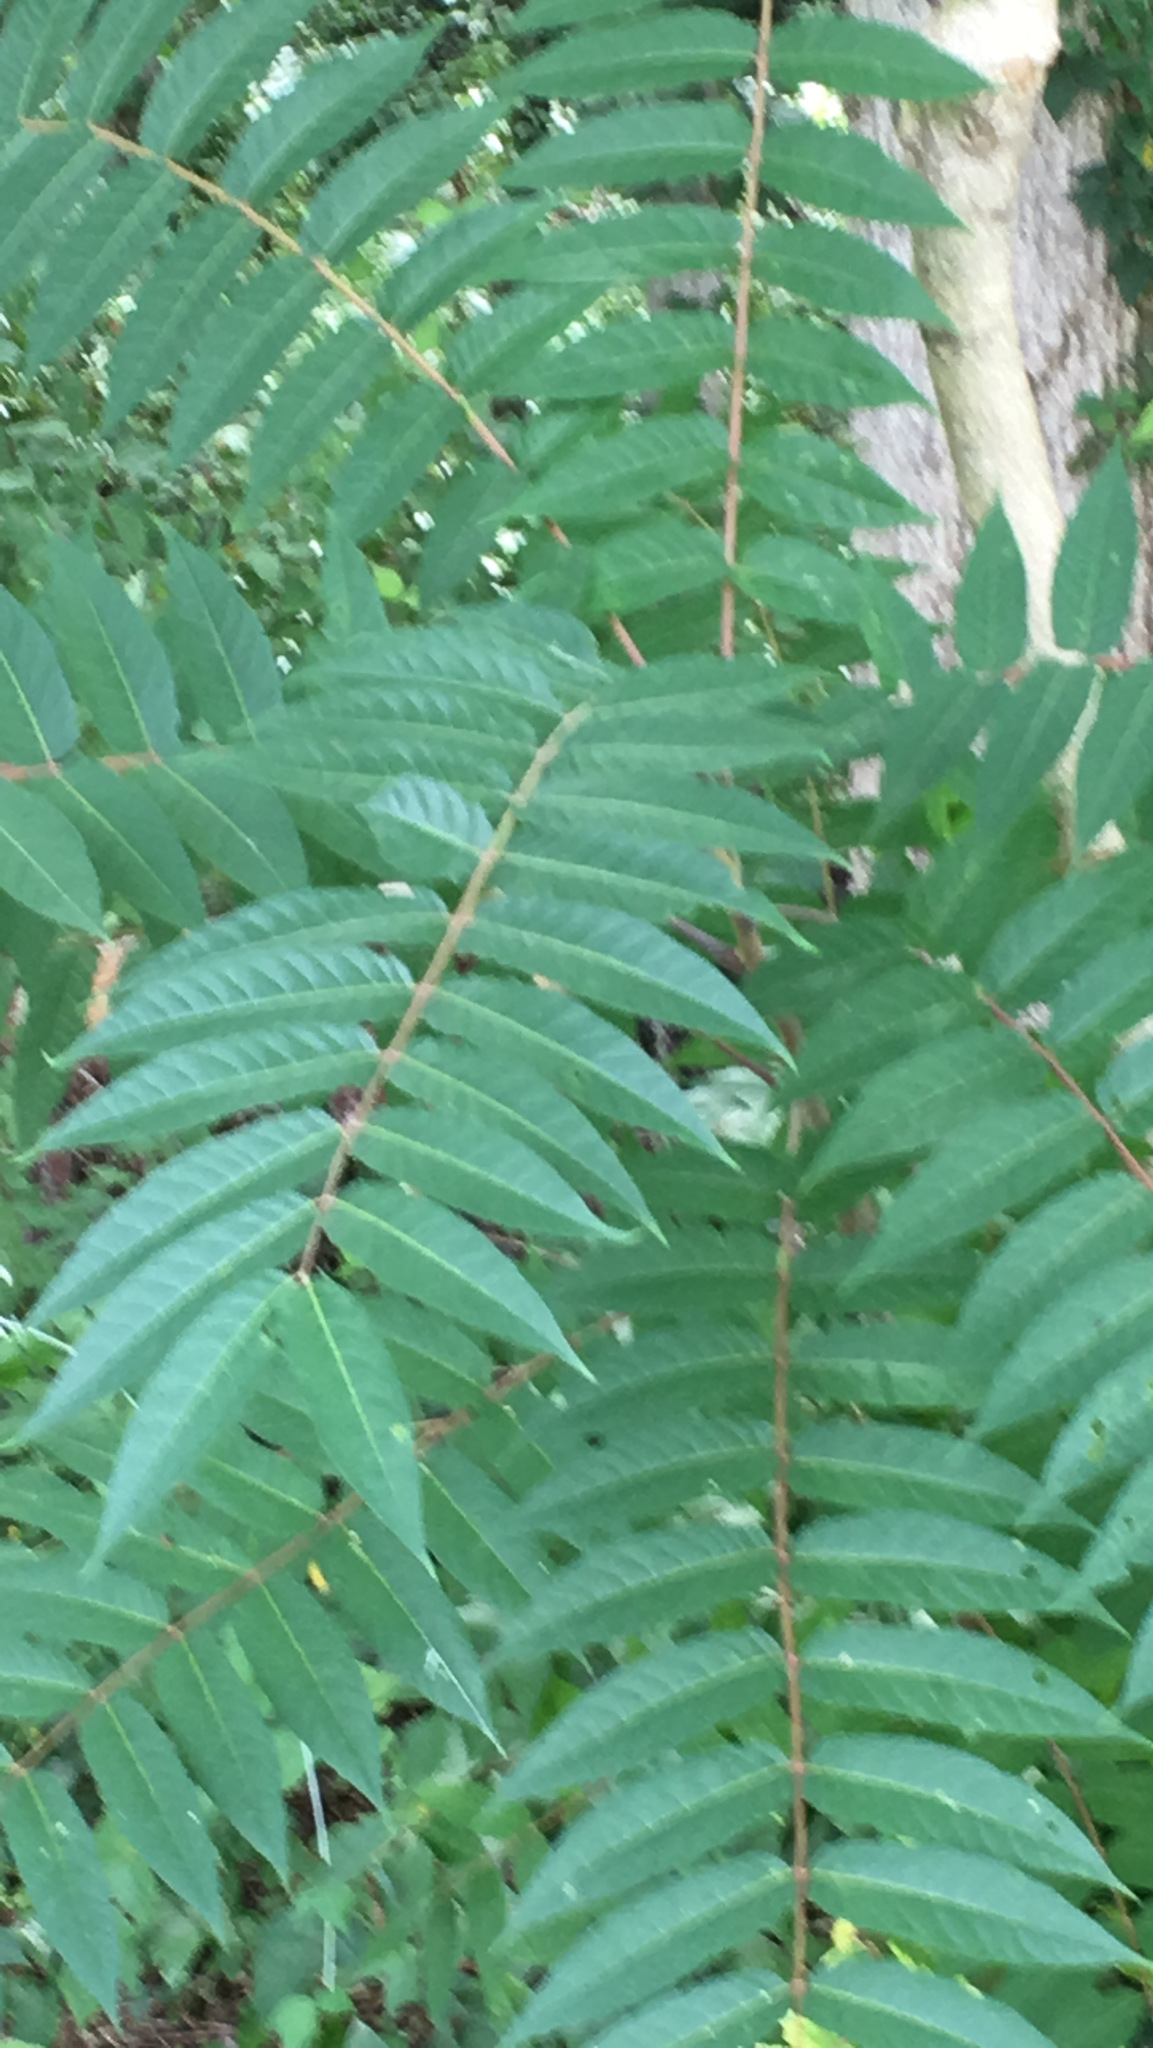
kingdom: Plantae
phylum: Tracheophyta
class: Magnoliopsida
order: Sapindales
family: Simaroubaceae
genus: Ailanthus
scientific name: Ailanthus altissima
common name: Tree-of-heaven
